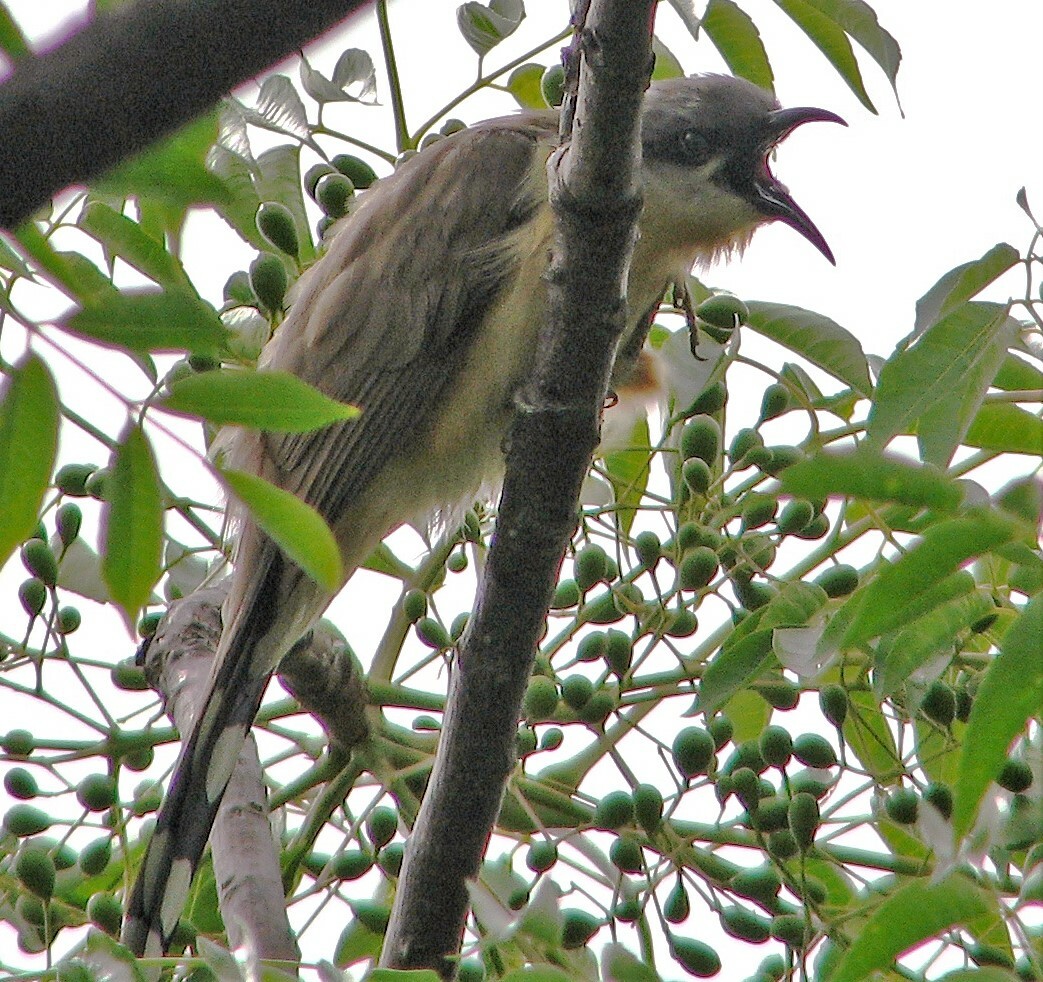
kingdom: Animalia
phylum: Chordata
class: Aves
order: Cuculiformes
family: Cuculidae
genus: Coccyzus
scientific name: Coccyzus melacoryphus
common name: Dark-billed cuckoo
